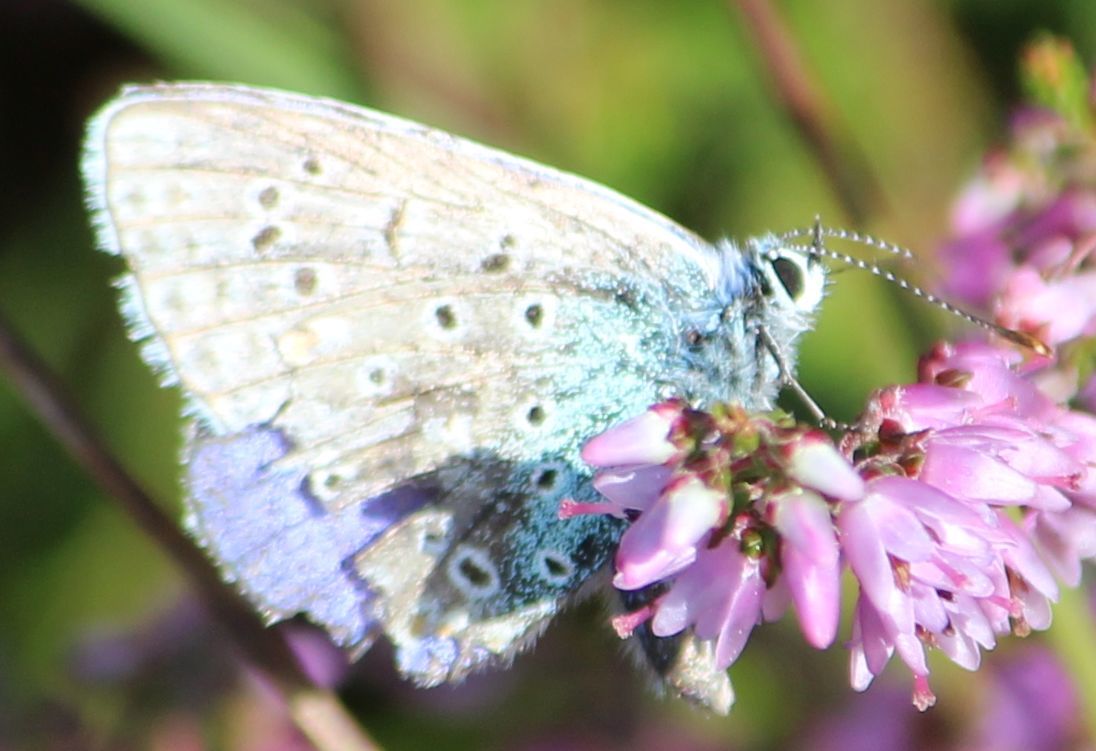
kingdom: Animalia
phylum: Arthropoda
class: Insecta
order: Lepidoptera
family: Lycaenidae
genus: Polyommatus
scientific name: Polyommatus icarus
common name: Common blue
